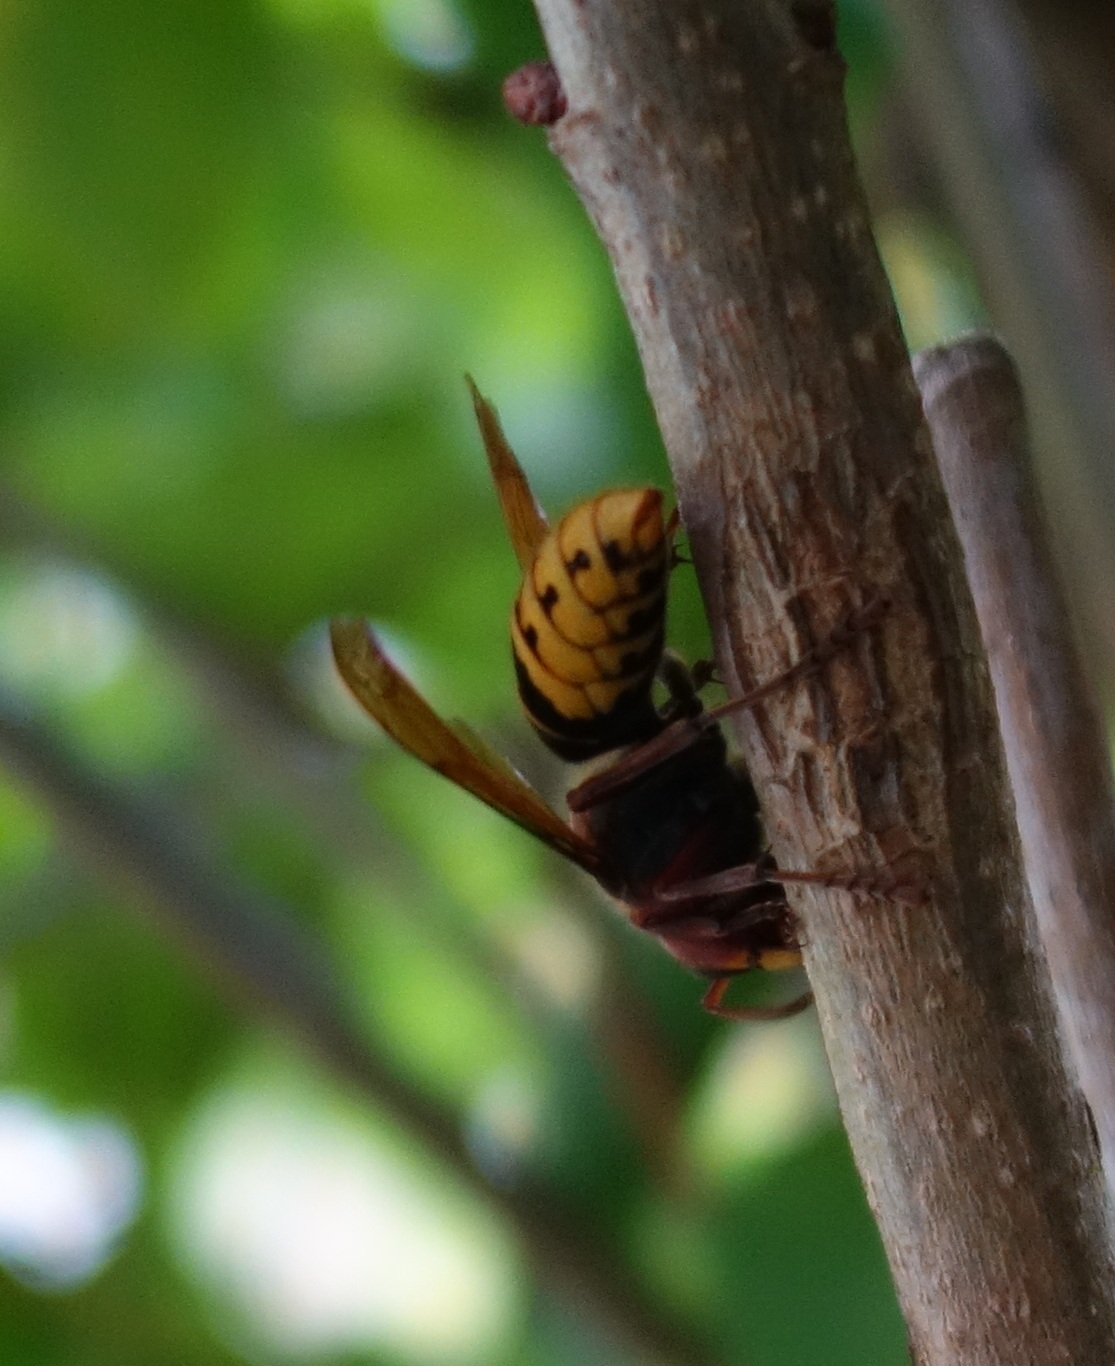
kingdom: Animalia
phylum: Arthropoda
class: Insecta
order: Hymenoptera
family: Vespidae
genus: Vespa
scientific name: Vespa crabro
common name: Hornet
